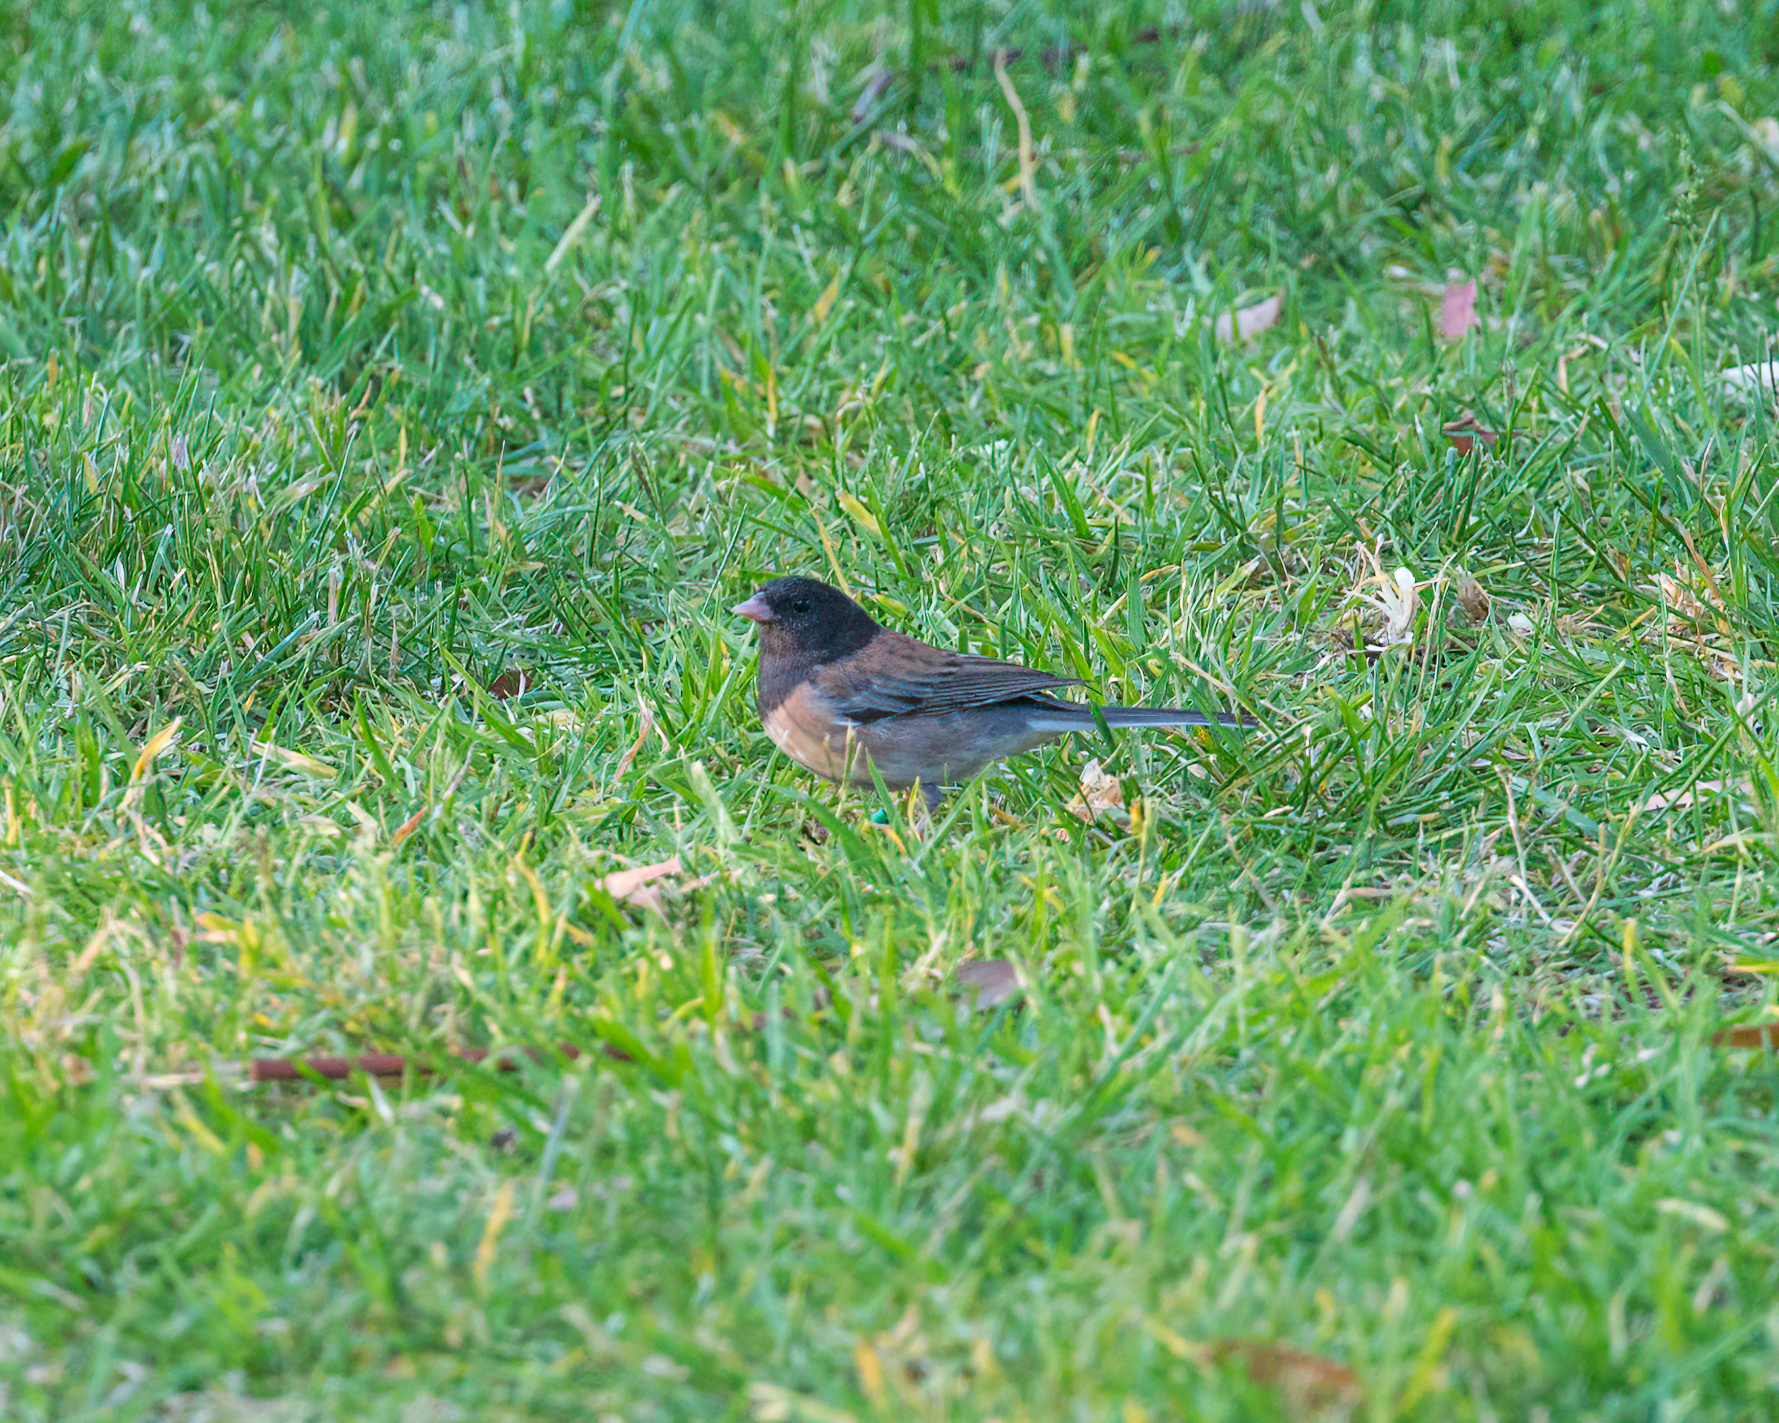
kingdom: Animalia
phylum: Chordata
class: Aves
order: Passeriformes
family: Passerellidae
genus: Junco
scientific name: Junco hyemalis
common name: Dark-eyed junco
